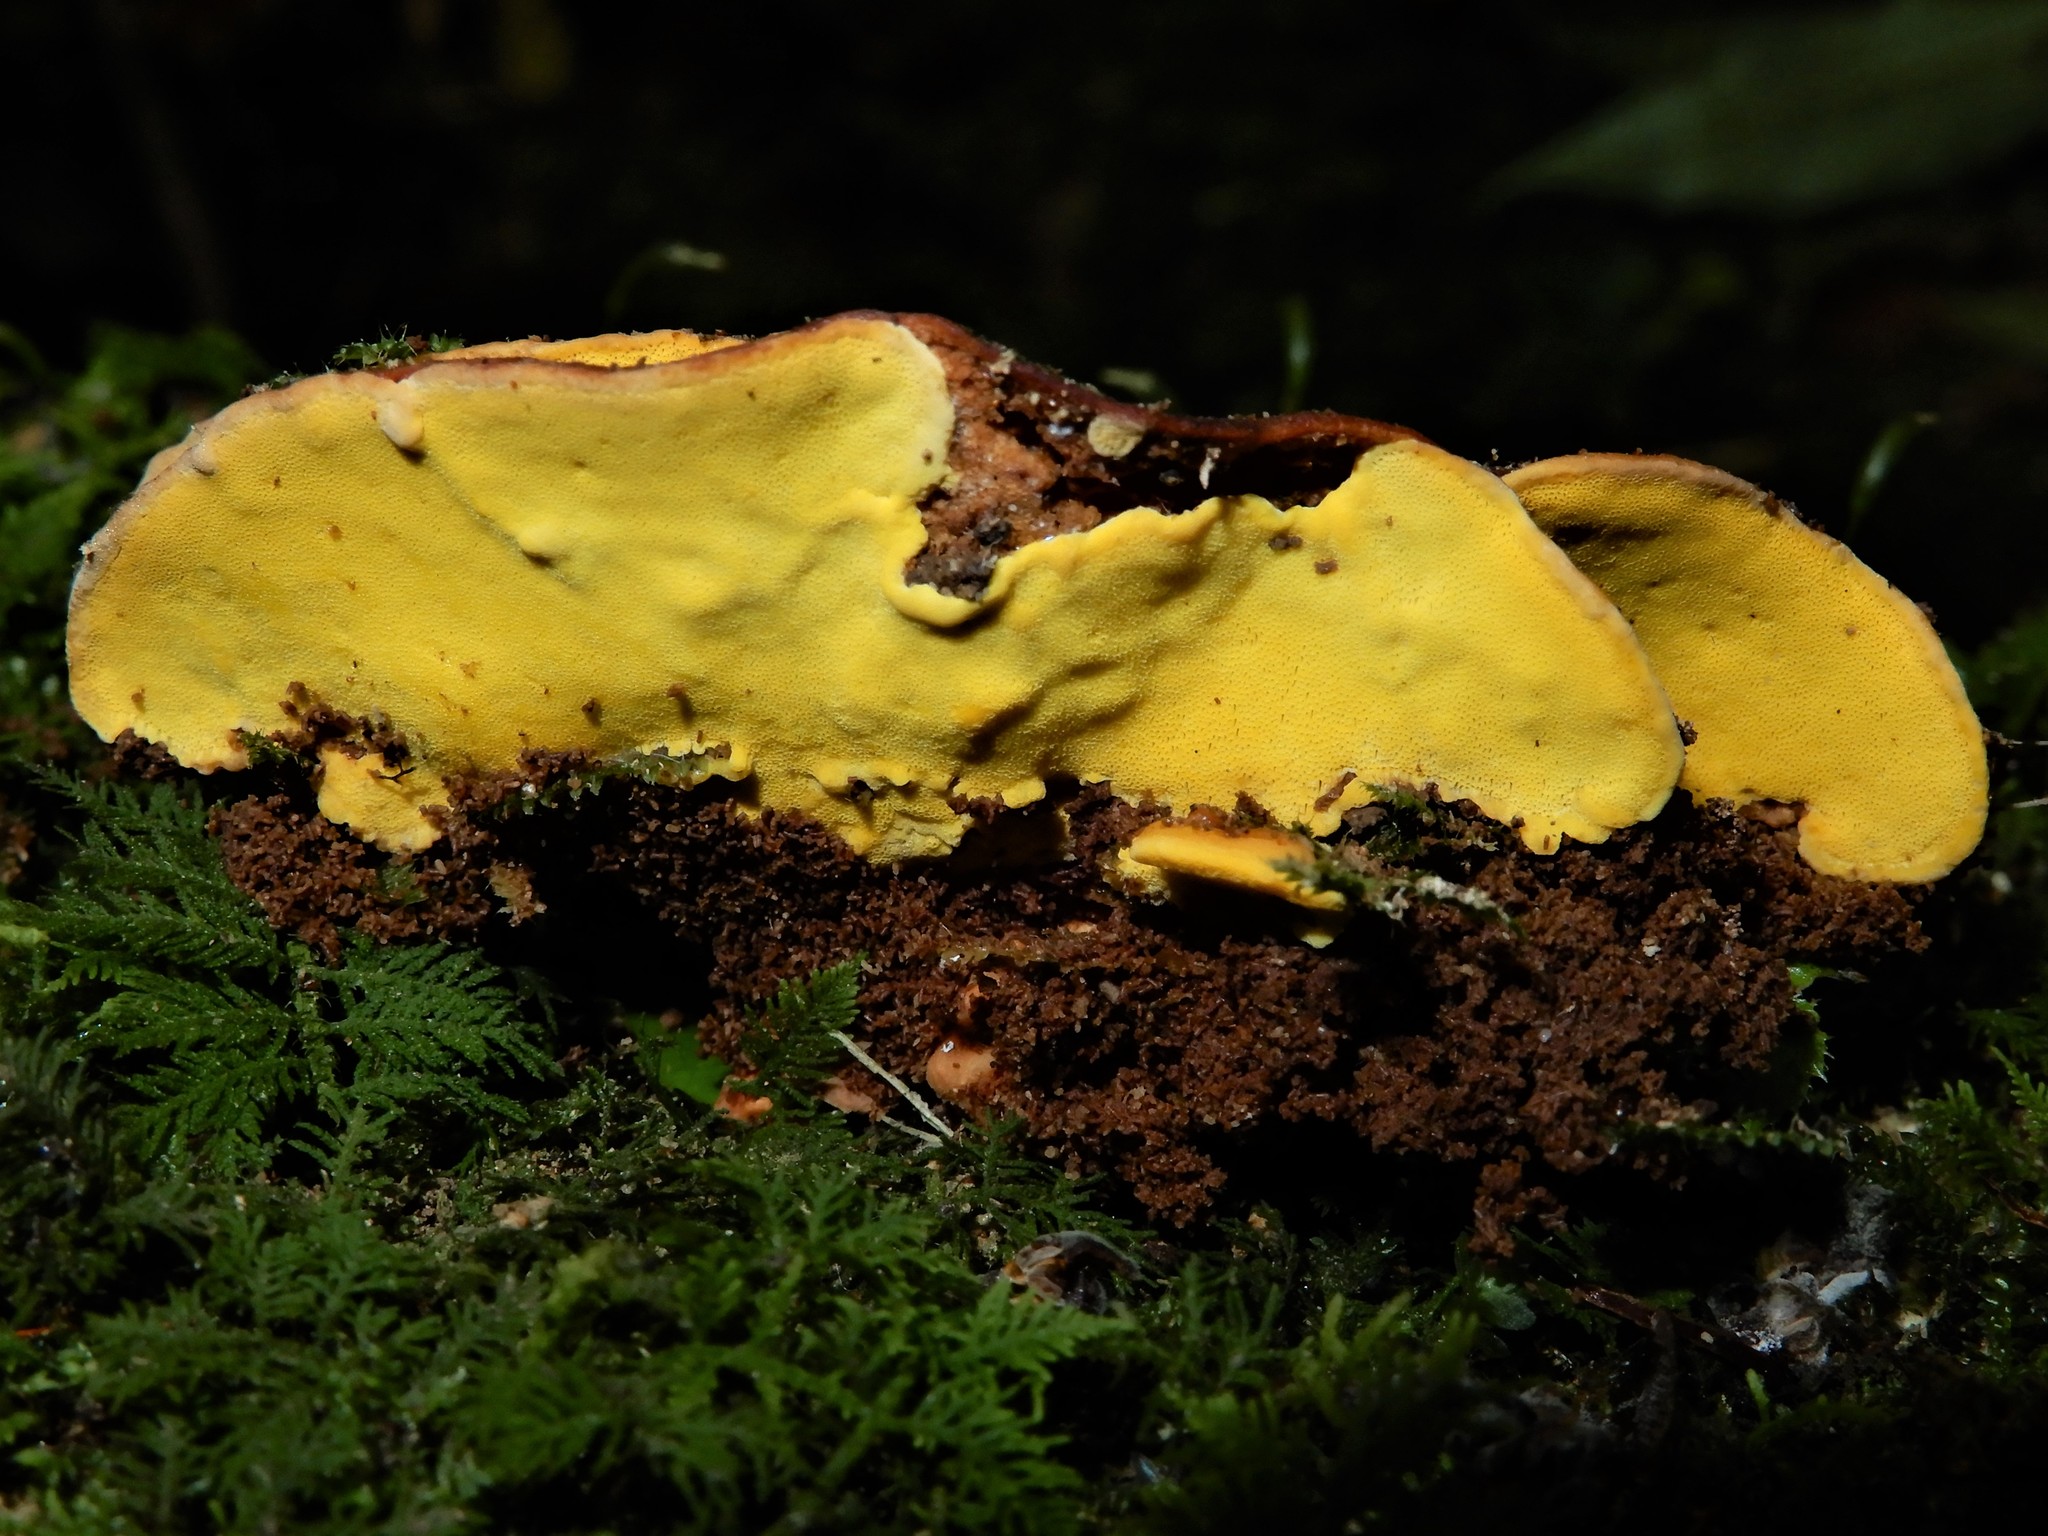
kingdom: Fungi
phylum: Basidiomycota
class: Agaricomycetes
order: Polyporales
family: Steccherinaceae
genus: Flaviporus
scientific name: Flaviporus brownii
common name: Yellowpored bracket
